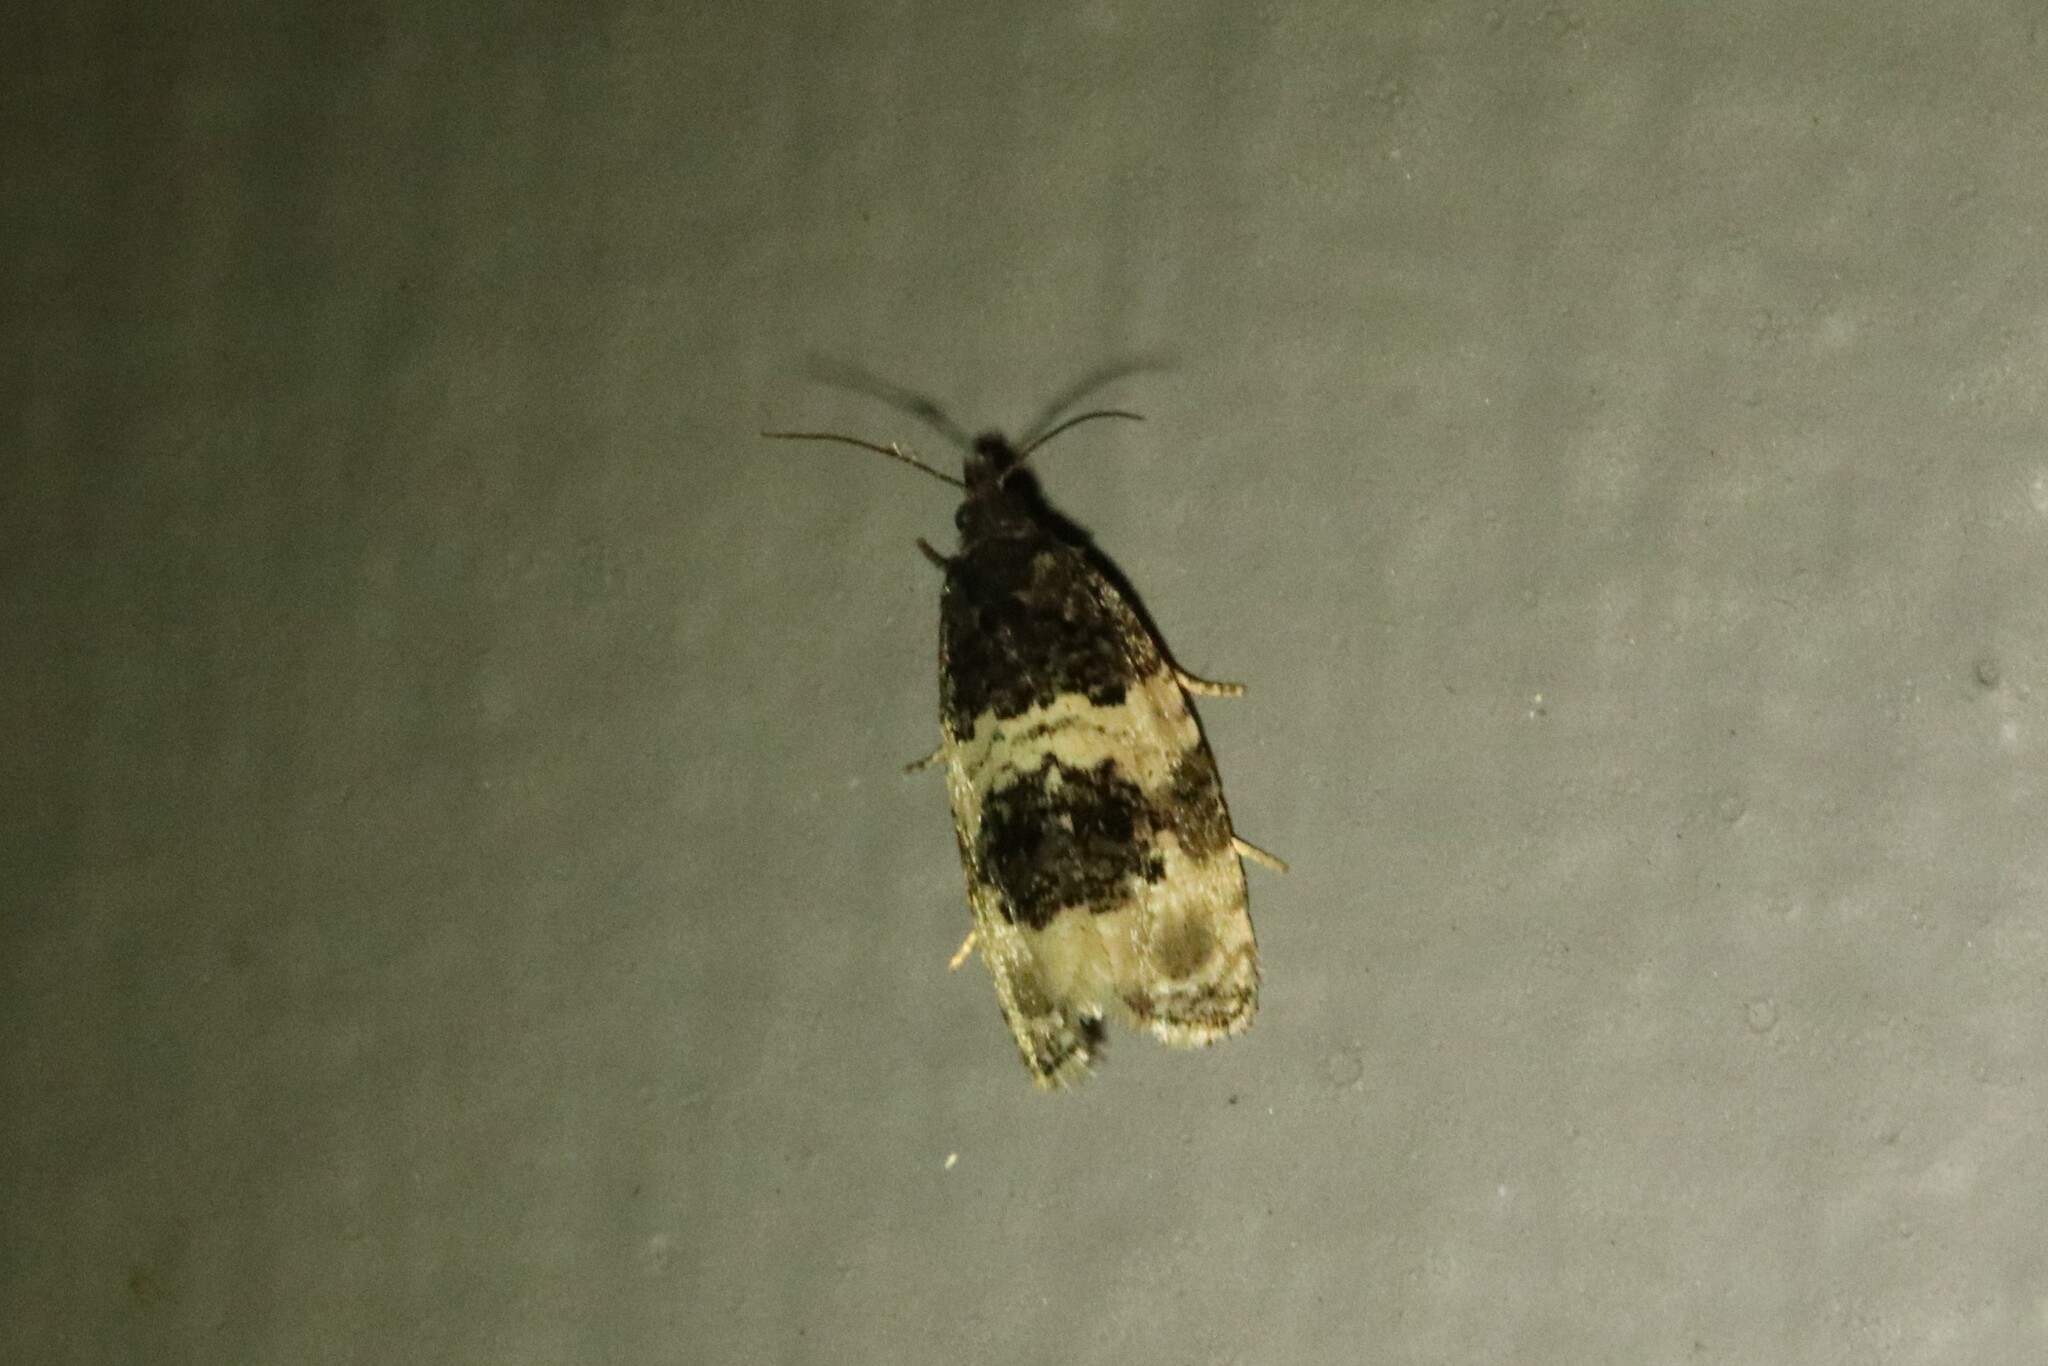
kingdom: Animalia
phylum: Arthropoda
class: Insecta
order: Lepidoptera
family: Tortricidae
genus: Olethreutes
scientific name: Olethreutes bipartitana
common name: Divided olethreutes moth
